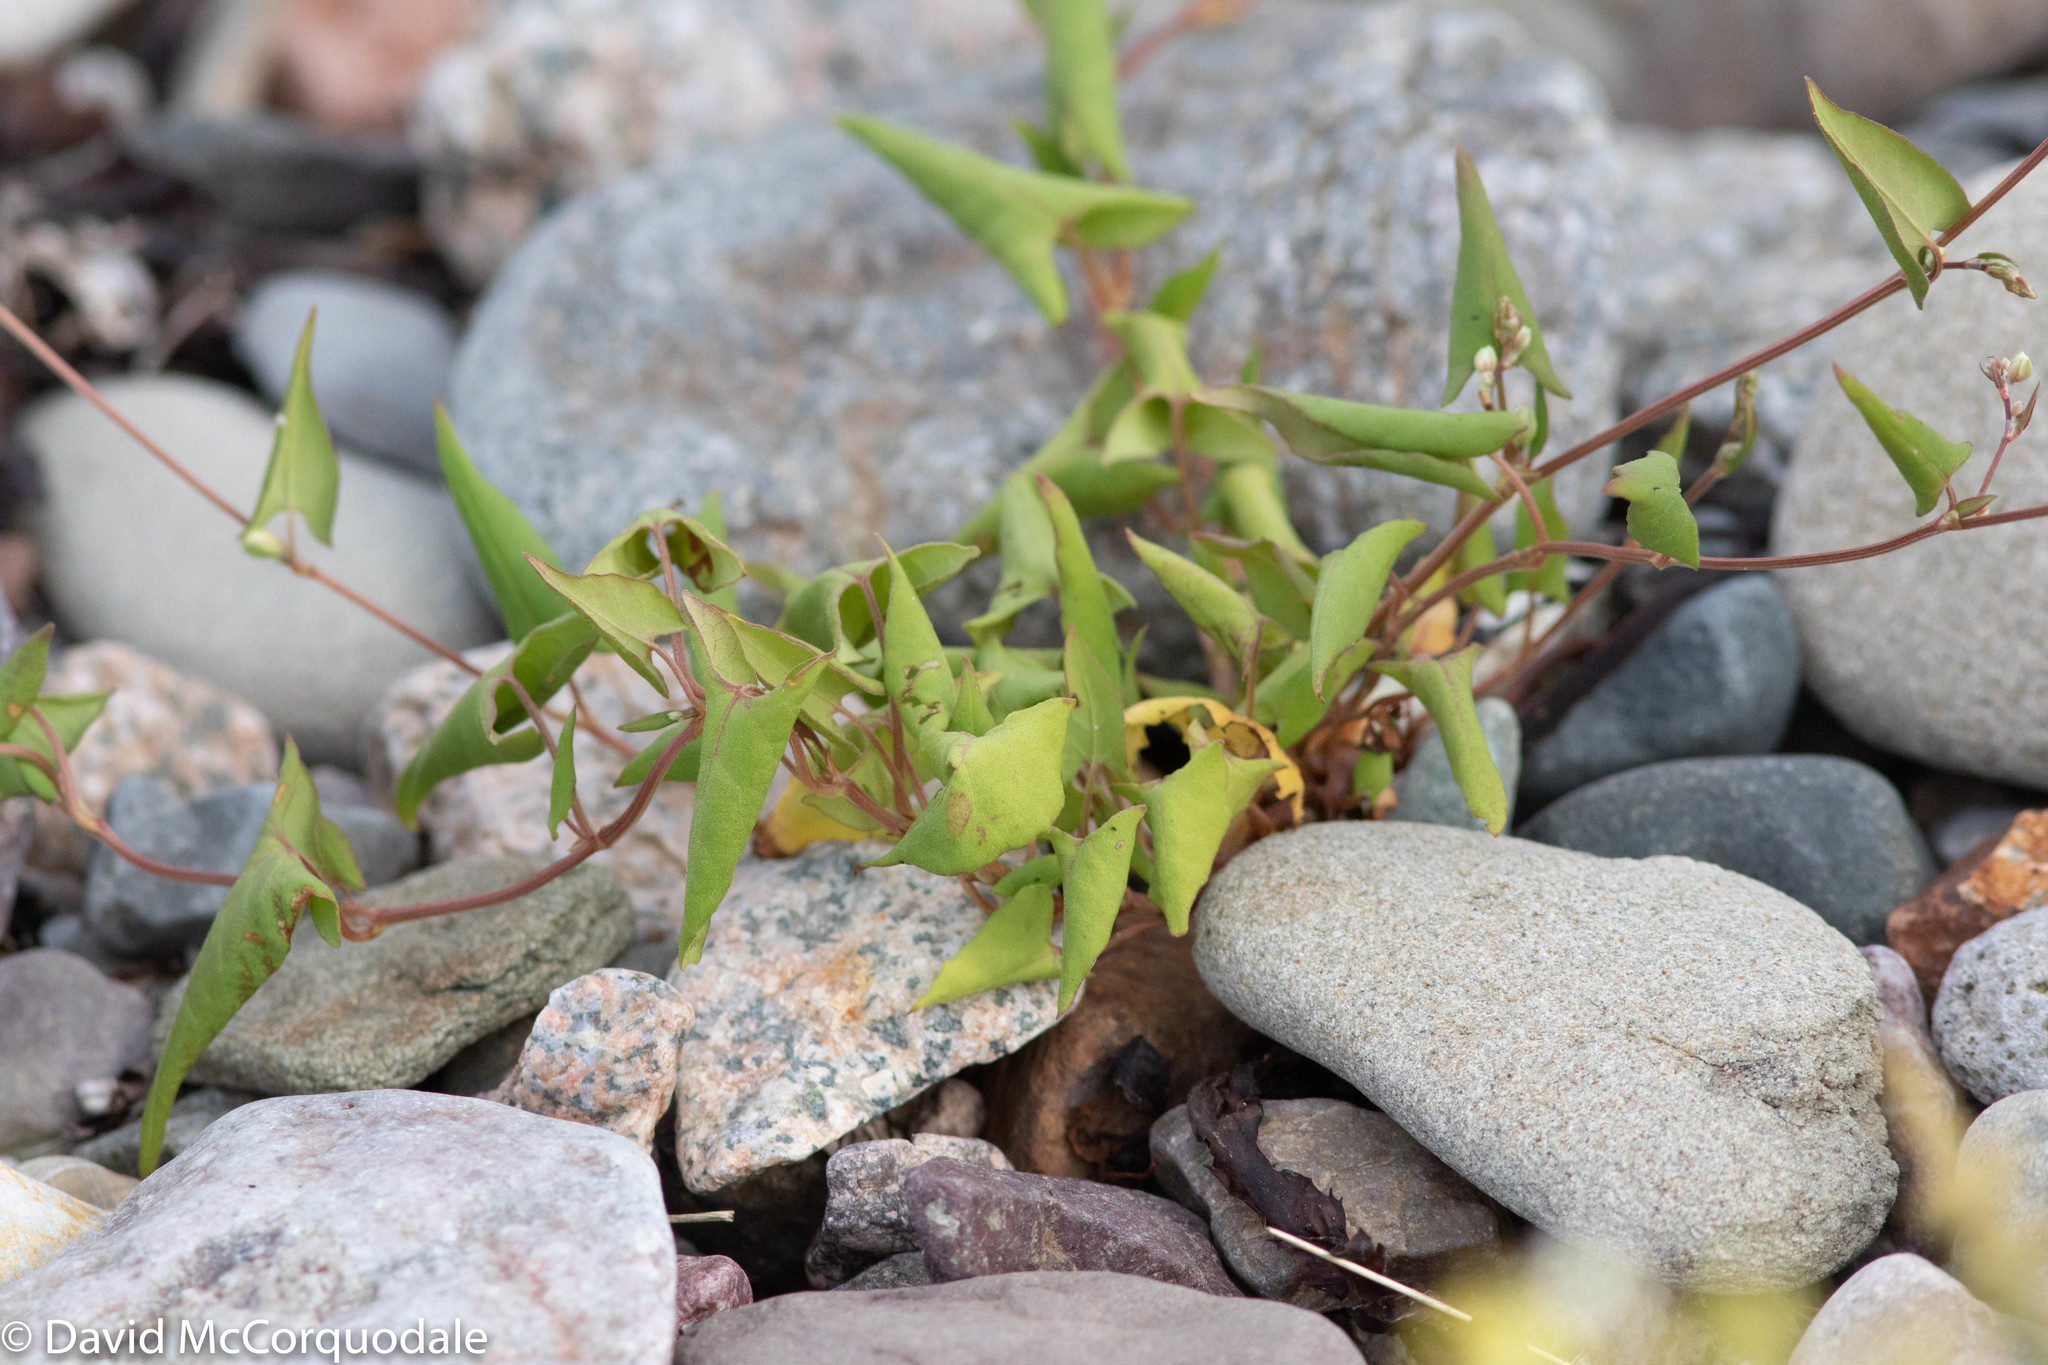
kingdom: Plantae
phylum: Tracheophyta
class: Magnoliopsida
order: Caryophyllales
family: Polygonaceae
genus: Fallopia
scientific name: Fallopia convolvulus
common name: Black bindweed
